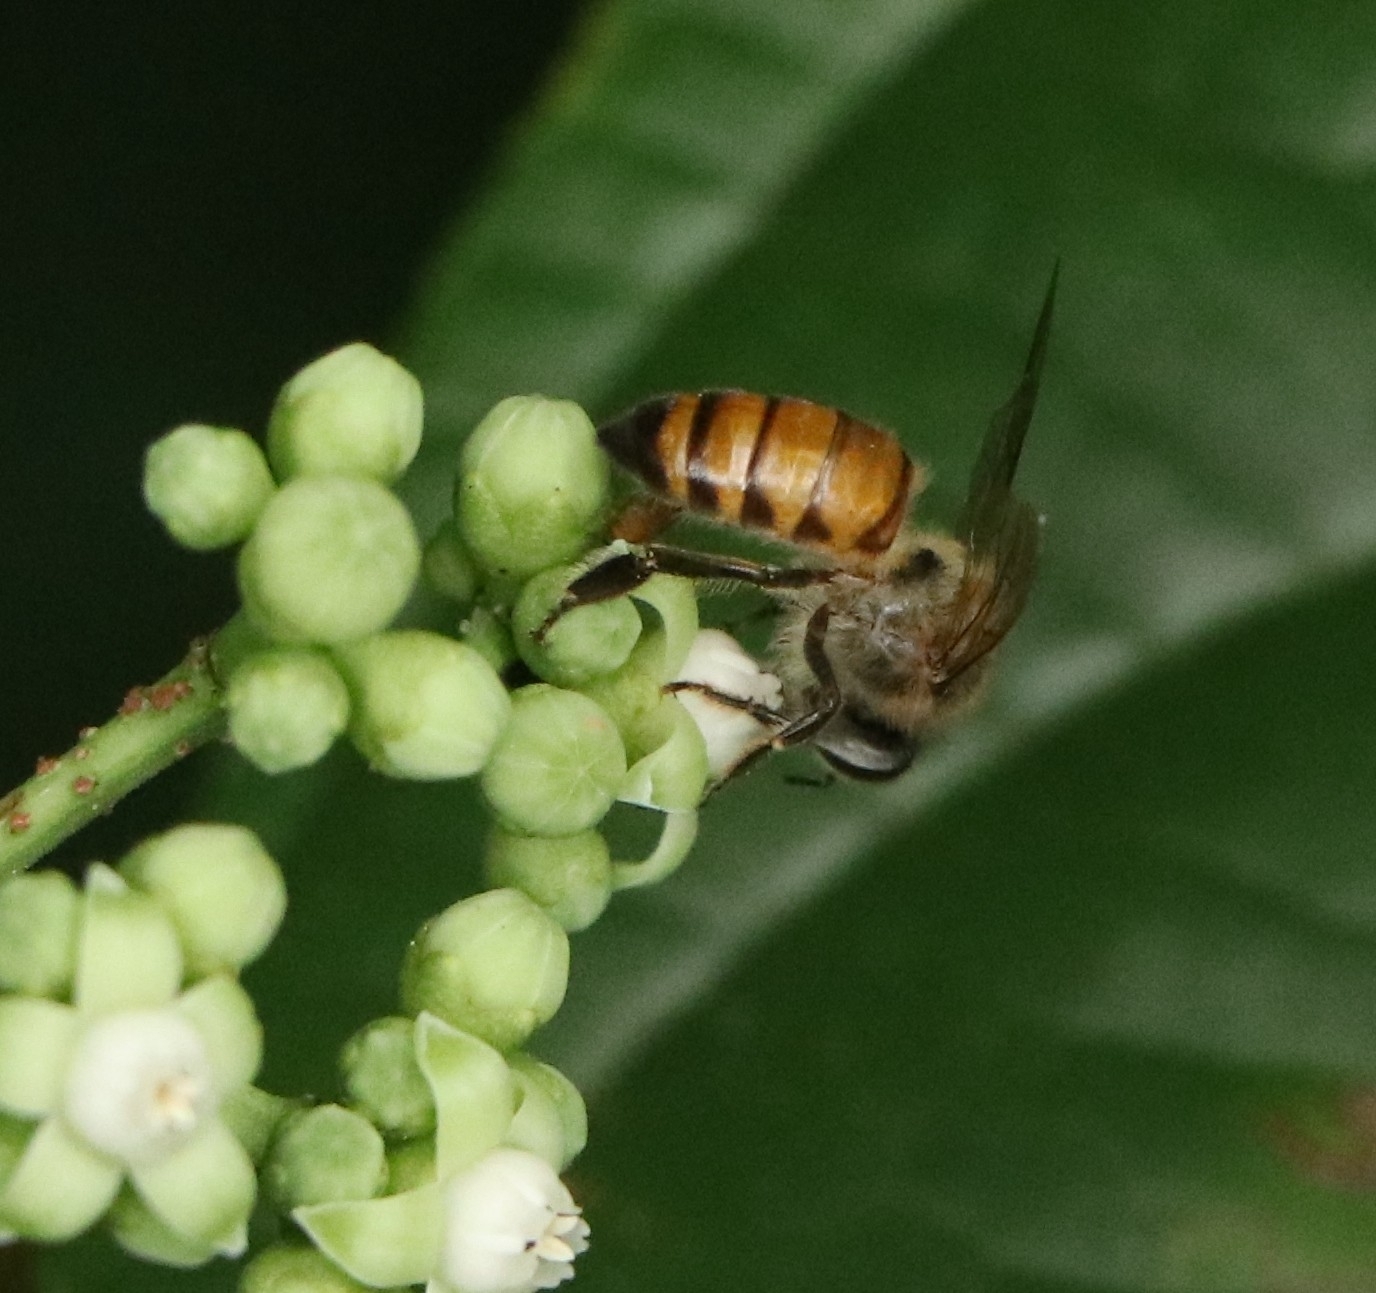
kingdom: Animalia
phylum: Arthropoda
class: Insecta
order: Hymenoptera
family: Apidae
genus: Apis
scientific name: Apis cerana
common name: Honey bee
